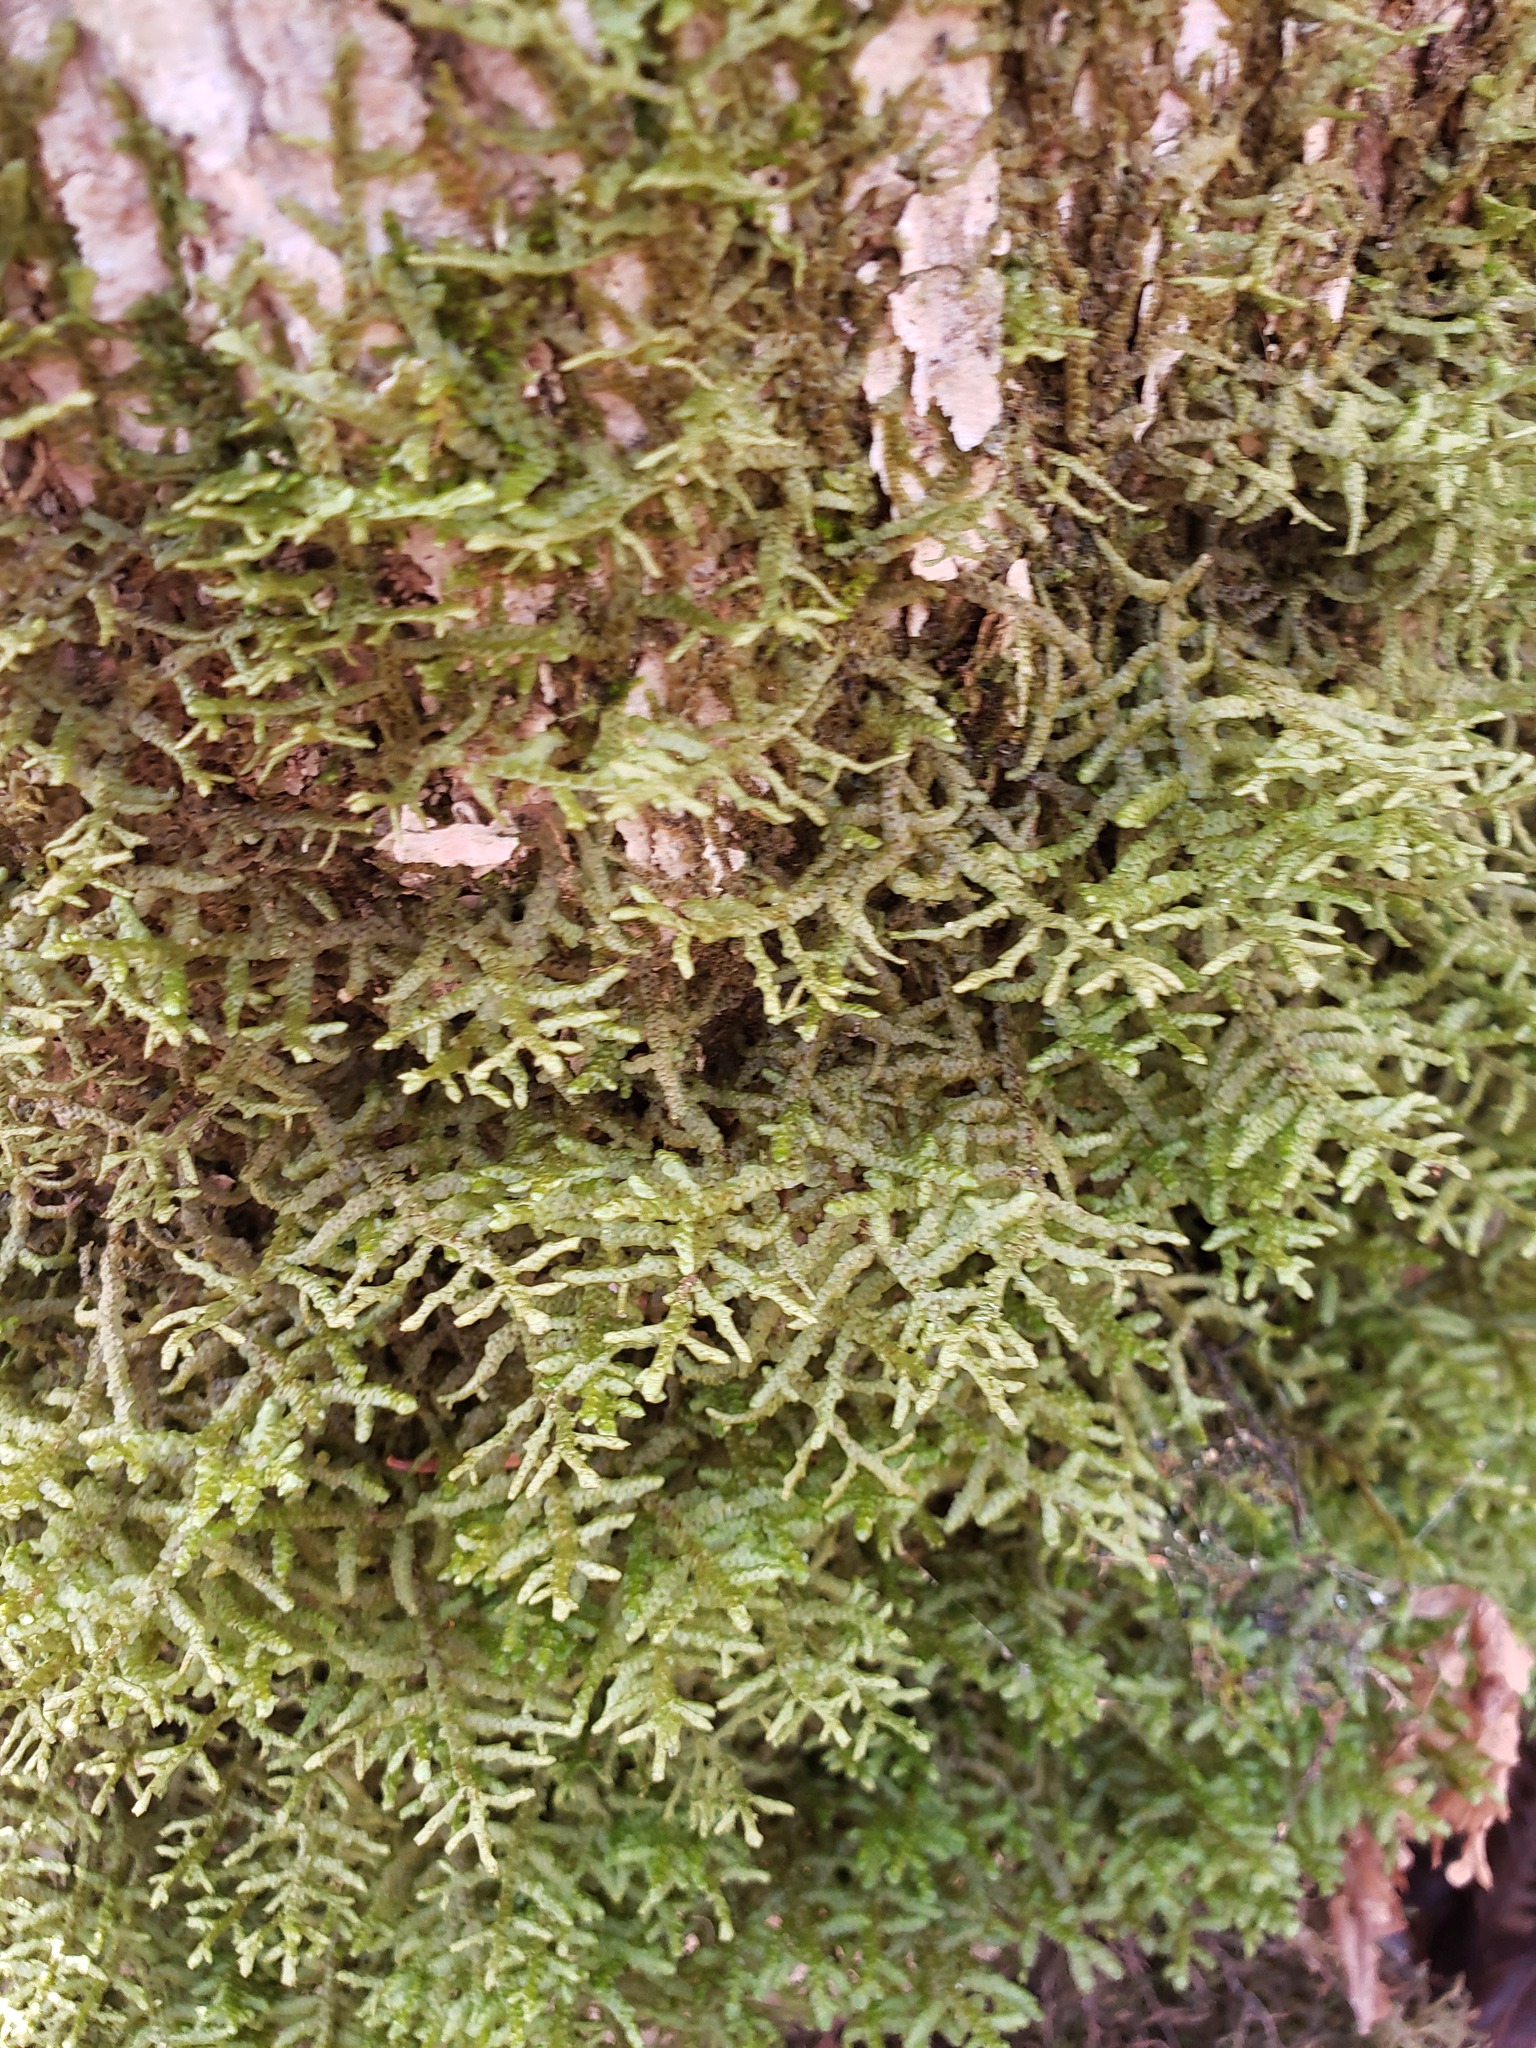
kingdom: Plantae
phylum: Marchantiophyta
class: Jungermanniopsida
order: Porellales
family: Porellaceae
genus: Porella
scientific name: Porella platyphylla
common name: Wall scalewort
